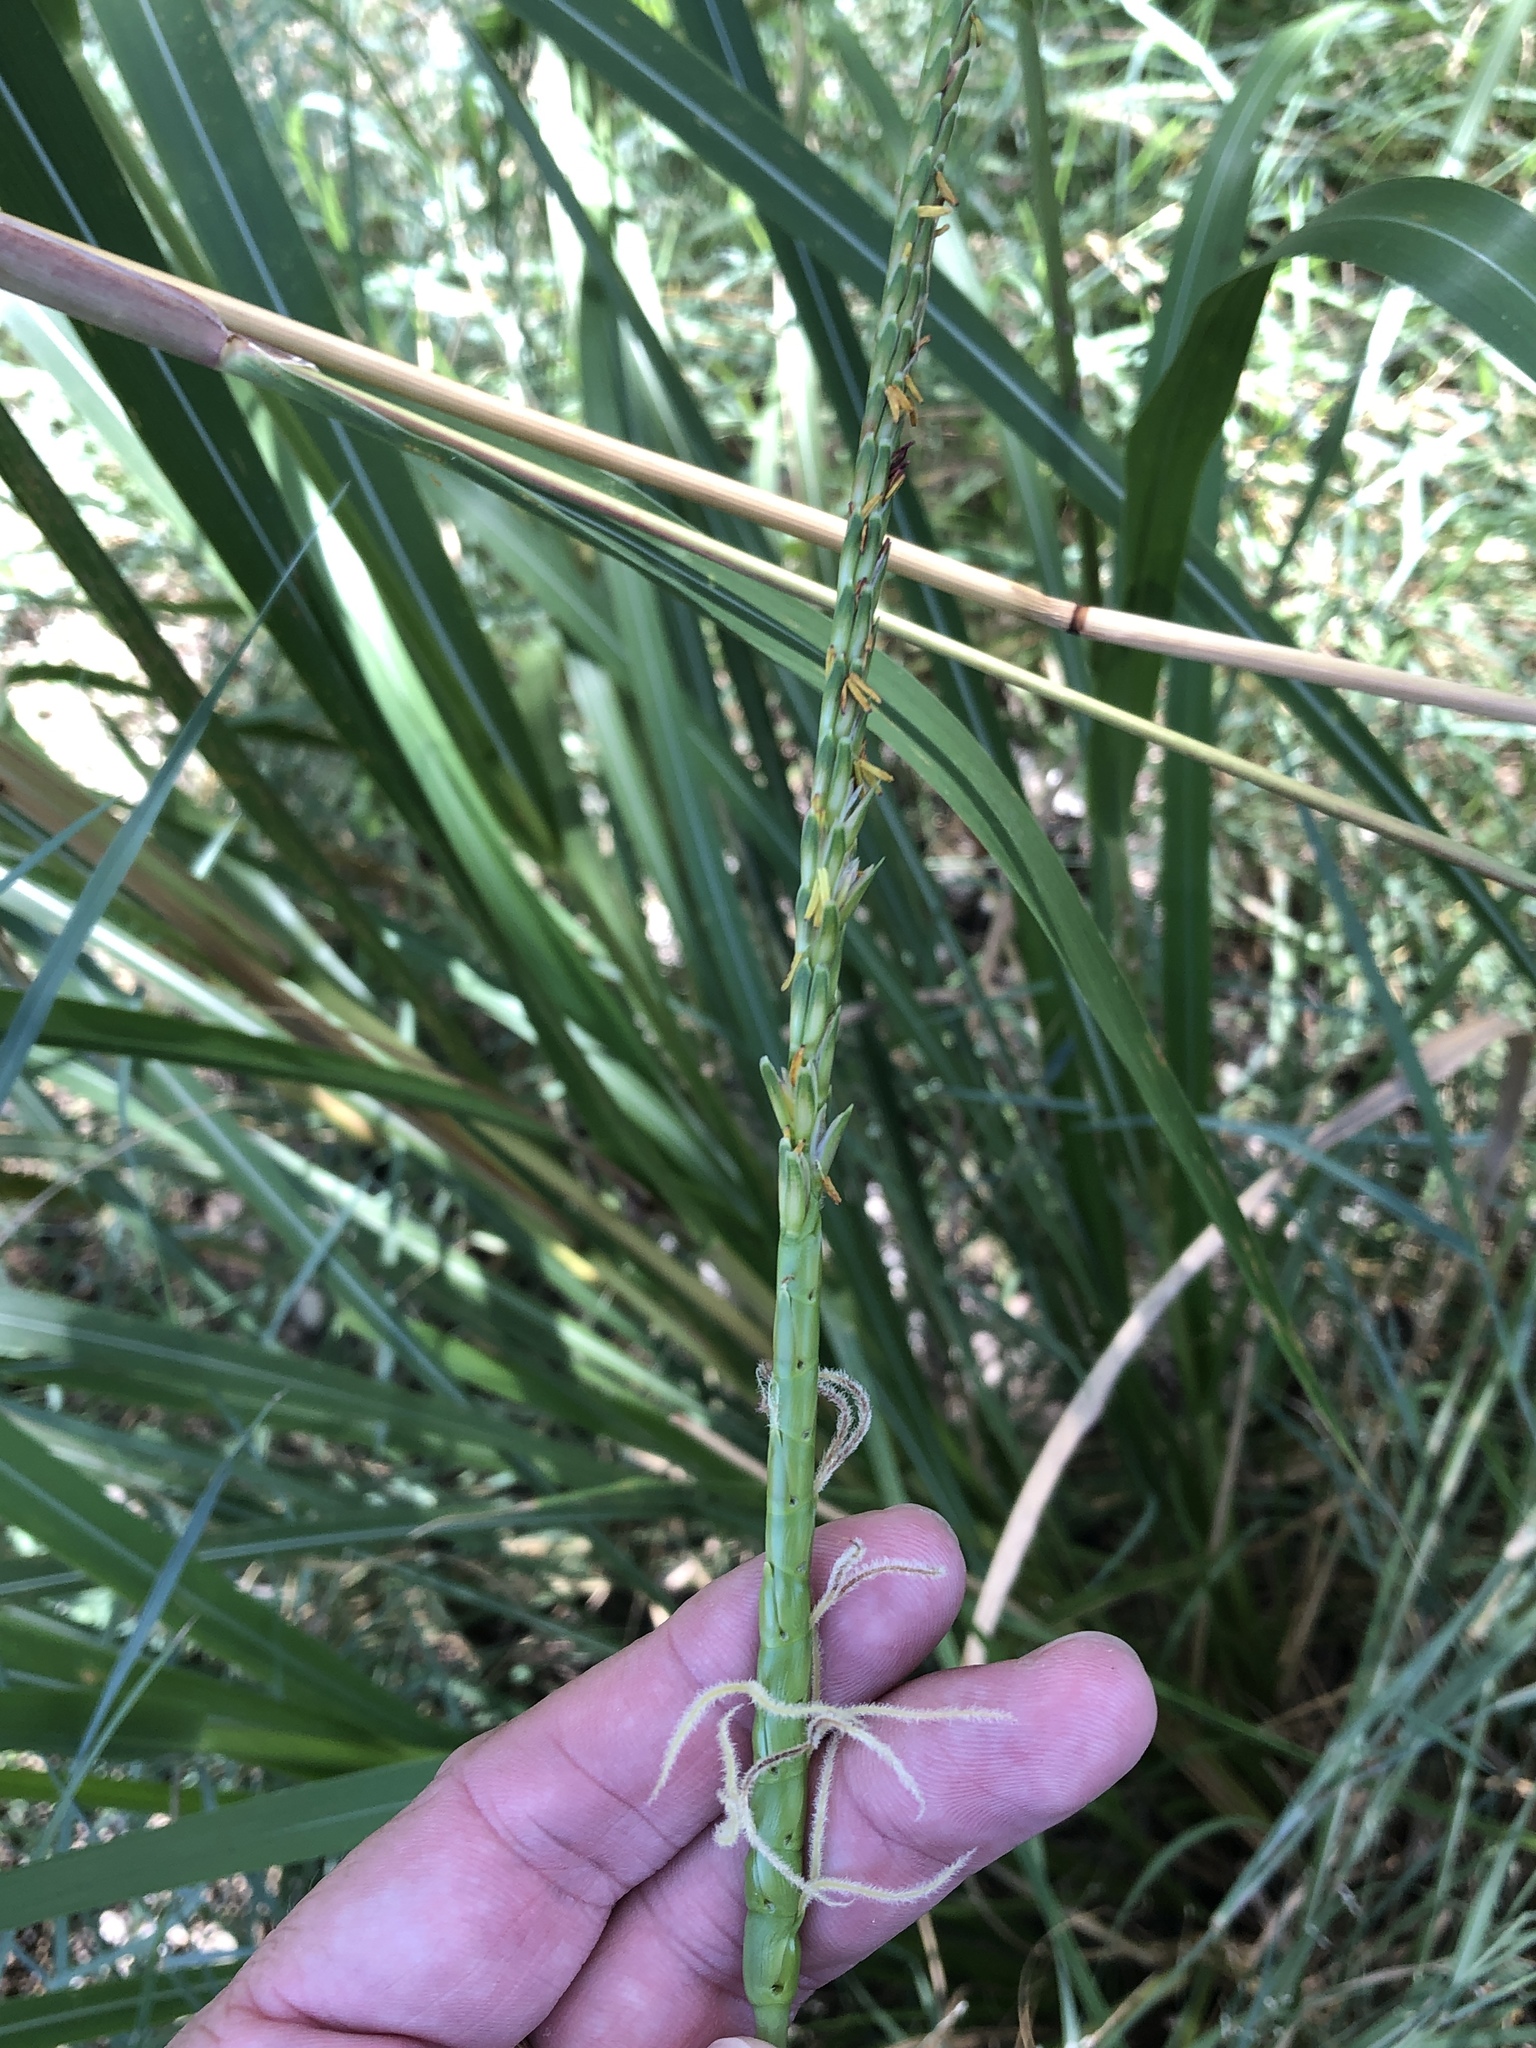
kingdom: Plantae
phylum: Tracheophyta
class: Liliopsida
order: Poales
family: Poaceae
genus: Tripsacum
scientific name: Tripsacum dactyloides
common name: Buffalo-grass
